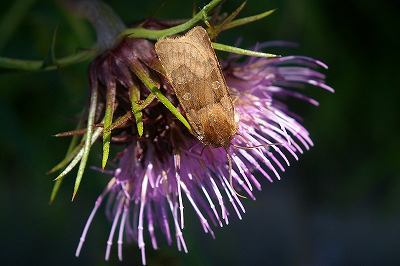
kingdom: Animalia
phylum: Arthropoda
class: Insecta
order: Lepidoptera
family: Noctuidae
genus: Chersotis
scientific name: Chersotis cuprea
